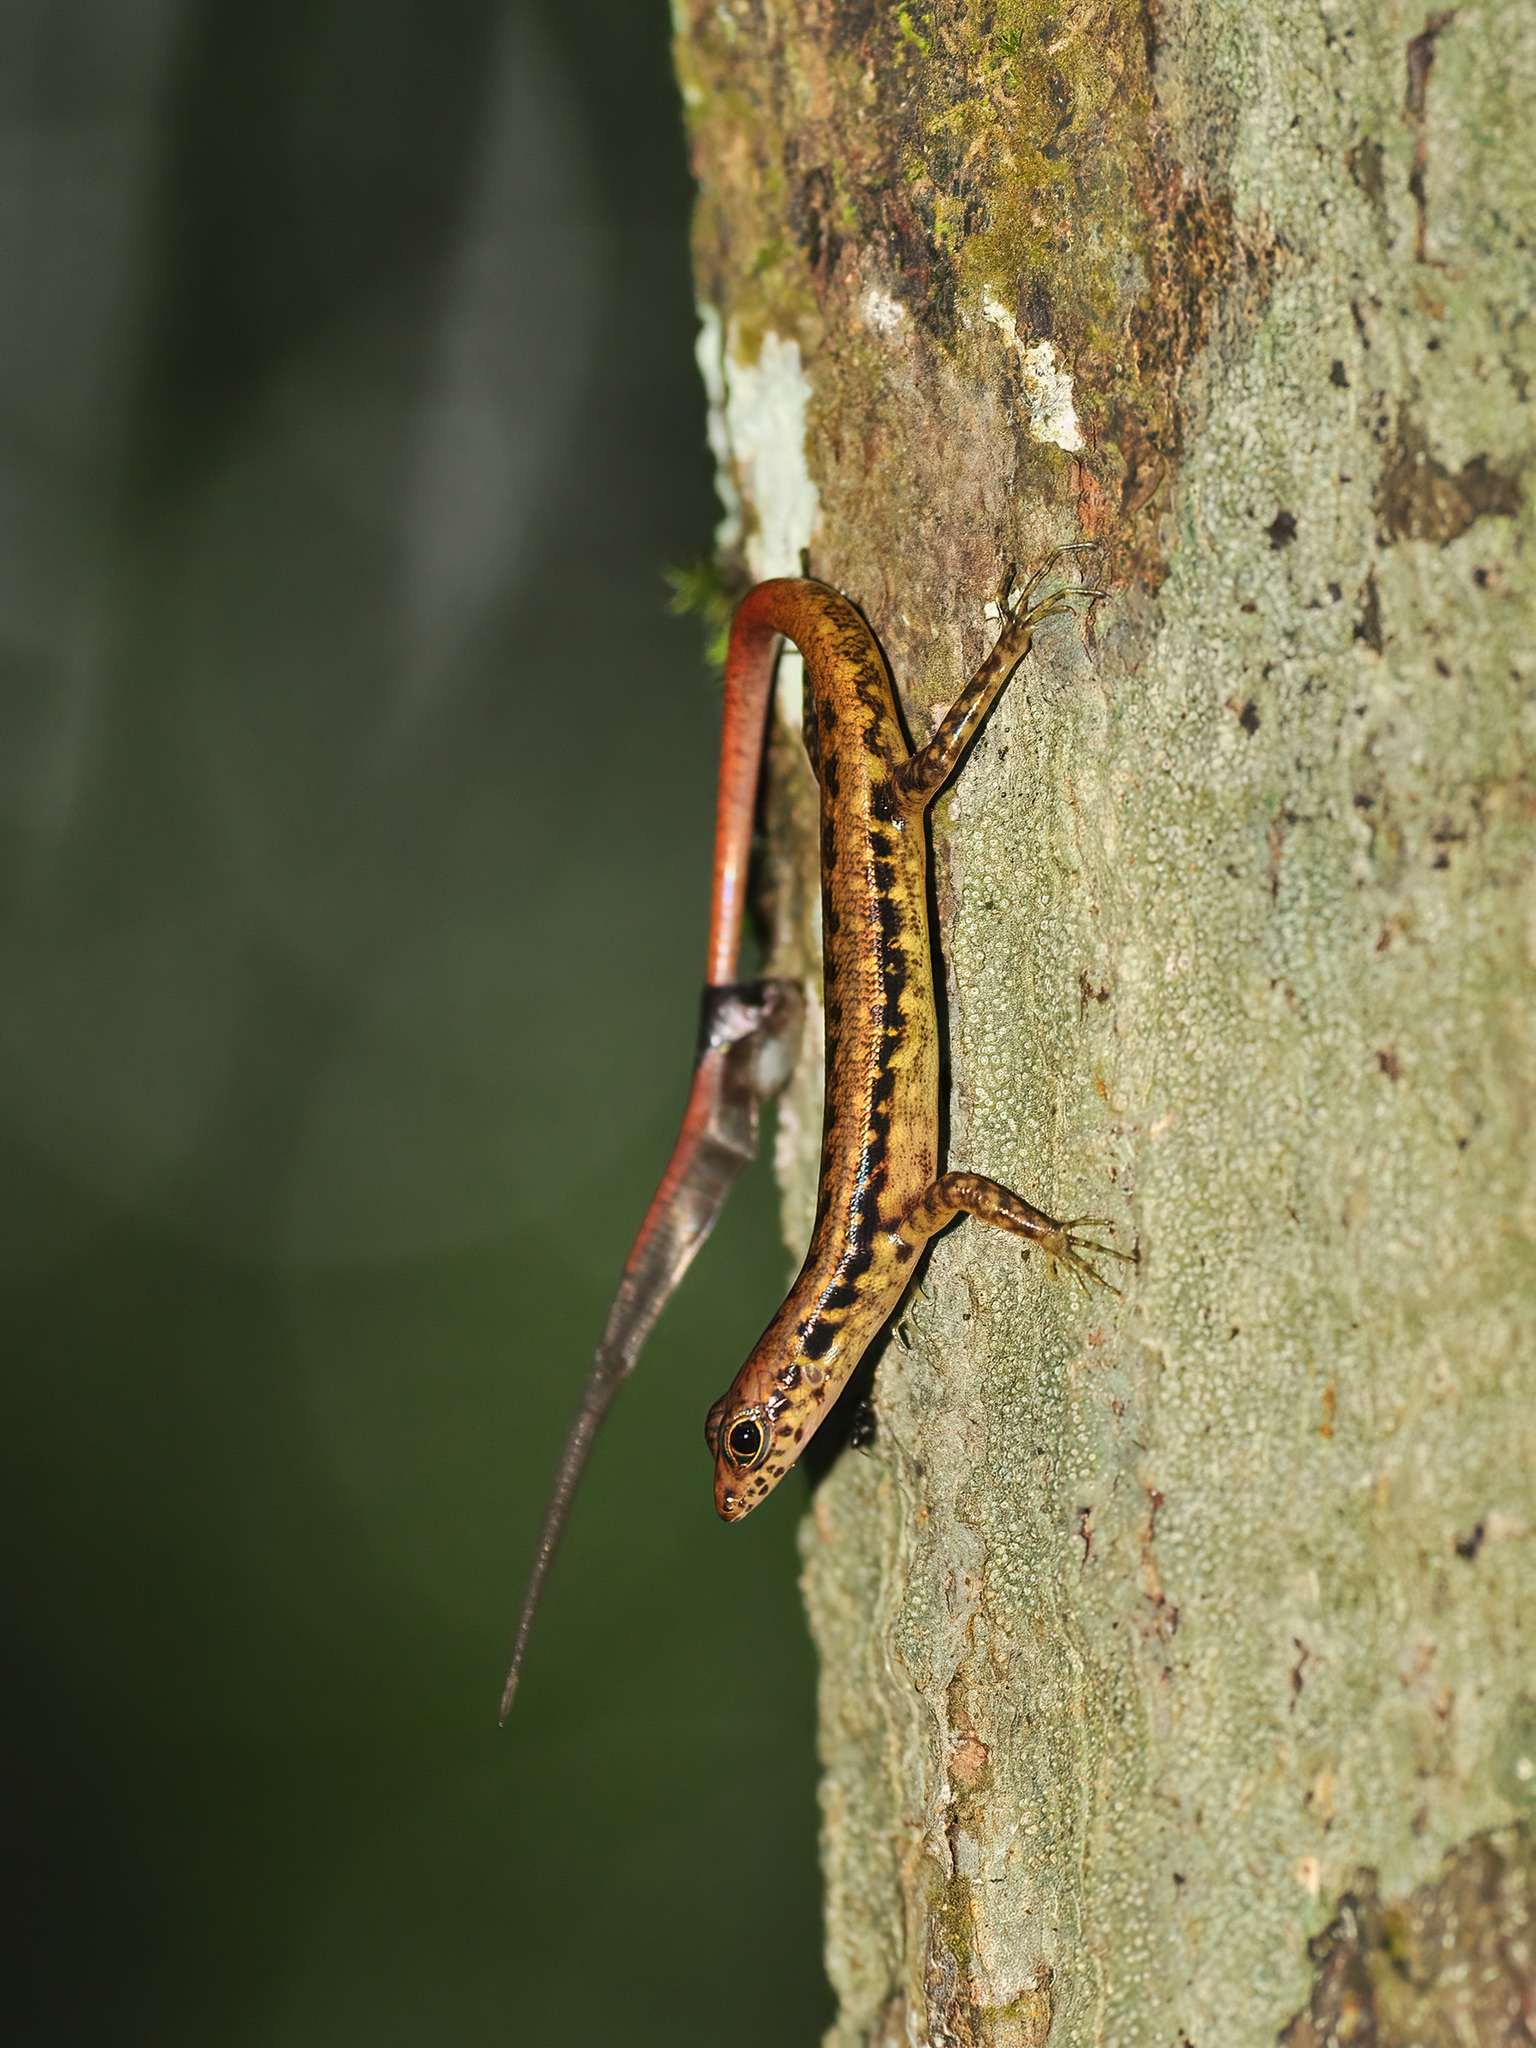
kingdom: Animalia
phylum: Chordata
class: Squamata
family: Scincidae
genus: Sphenomorphus
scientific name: Sphenomorphus scotophilus
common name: Selangor forest skink
